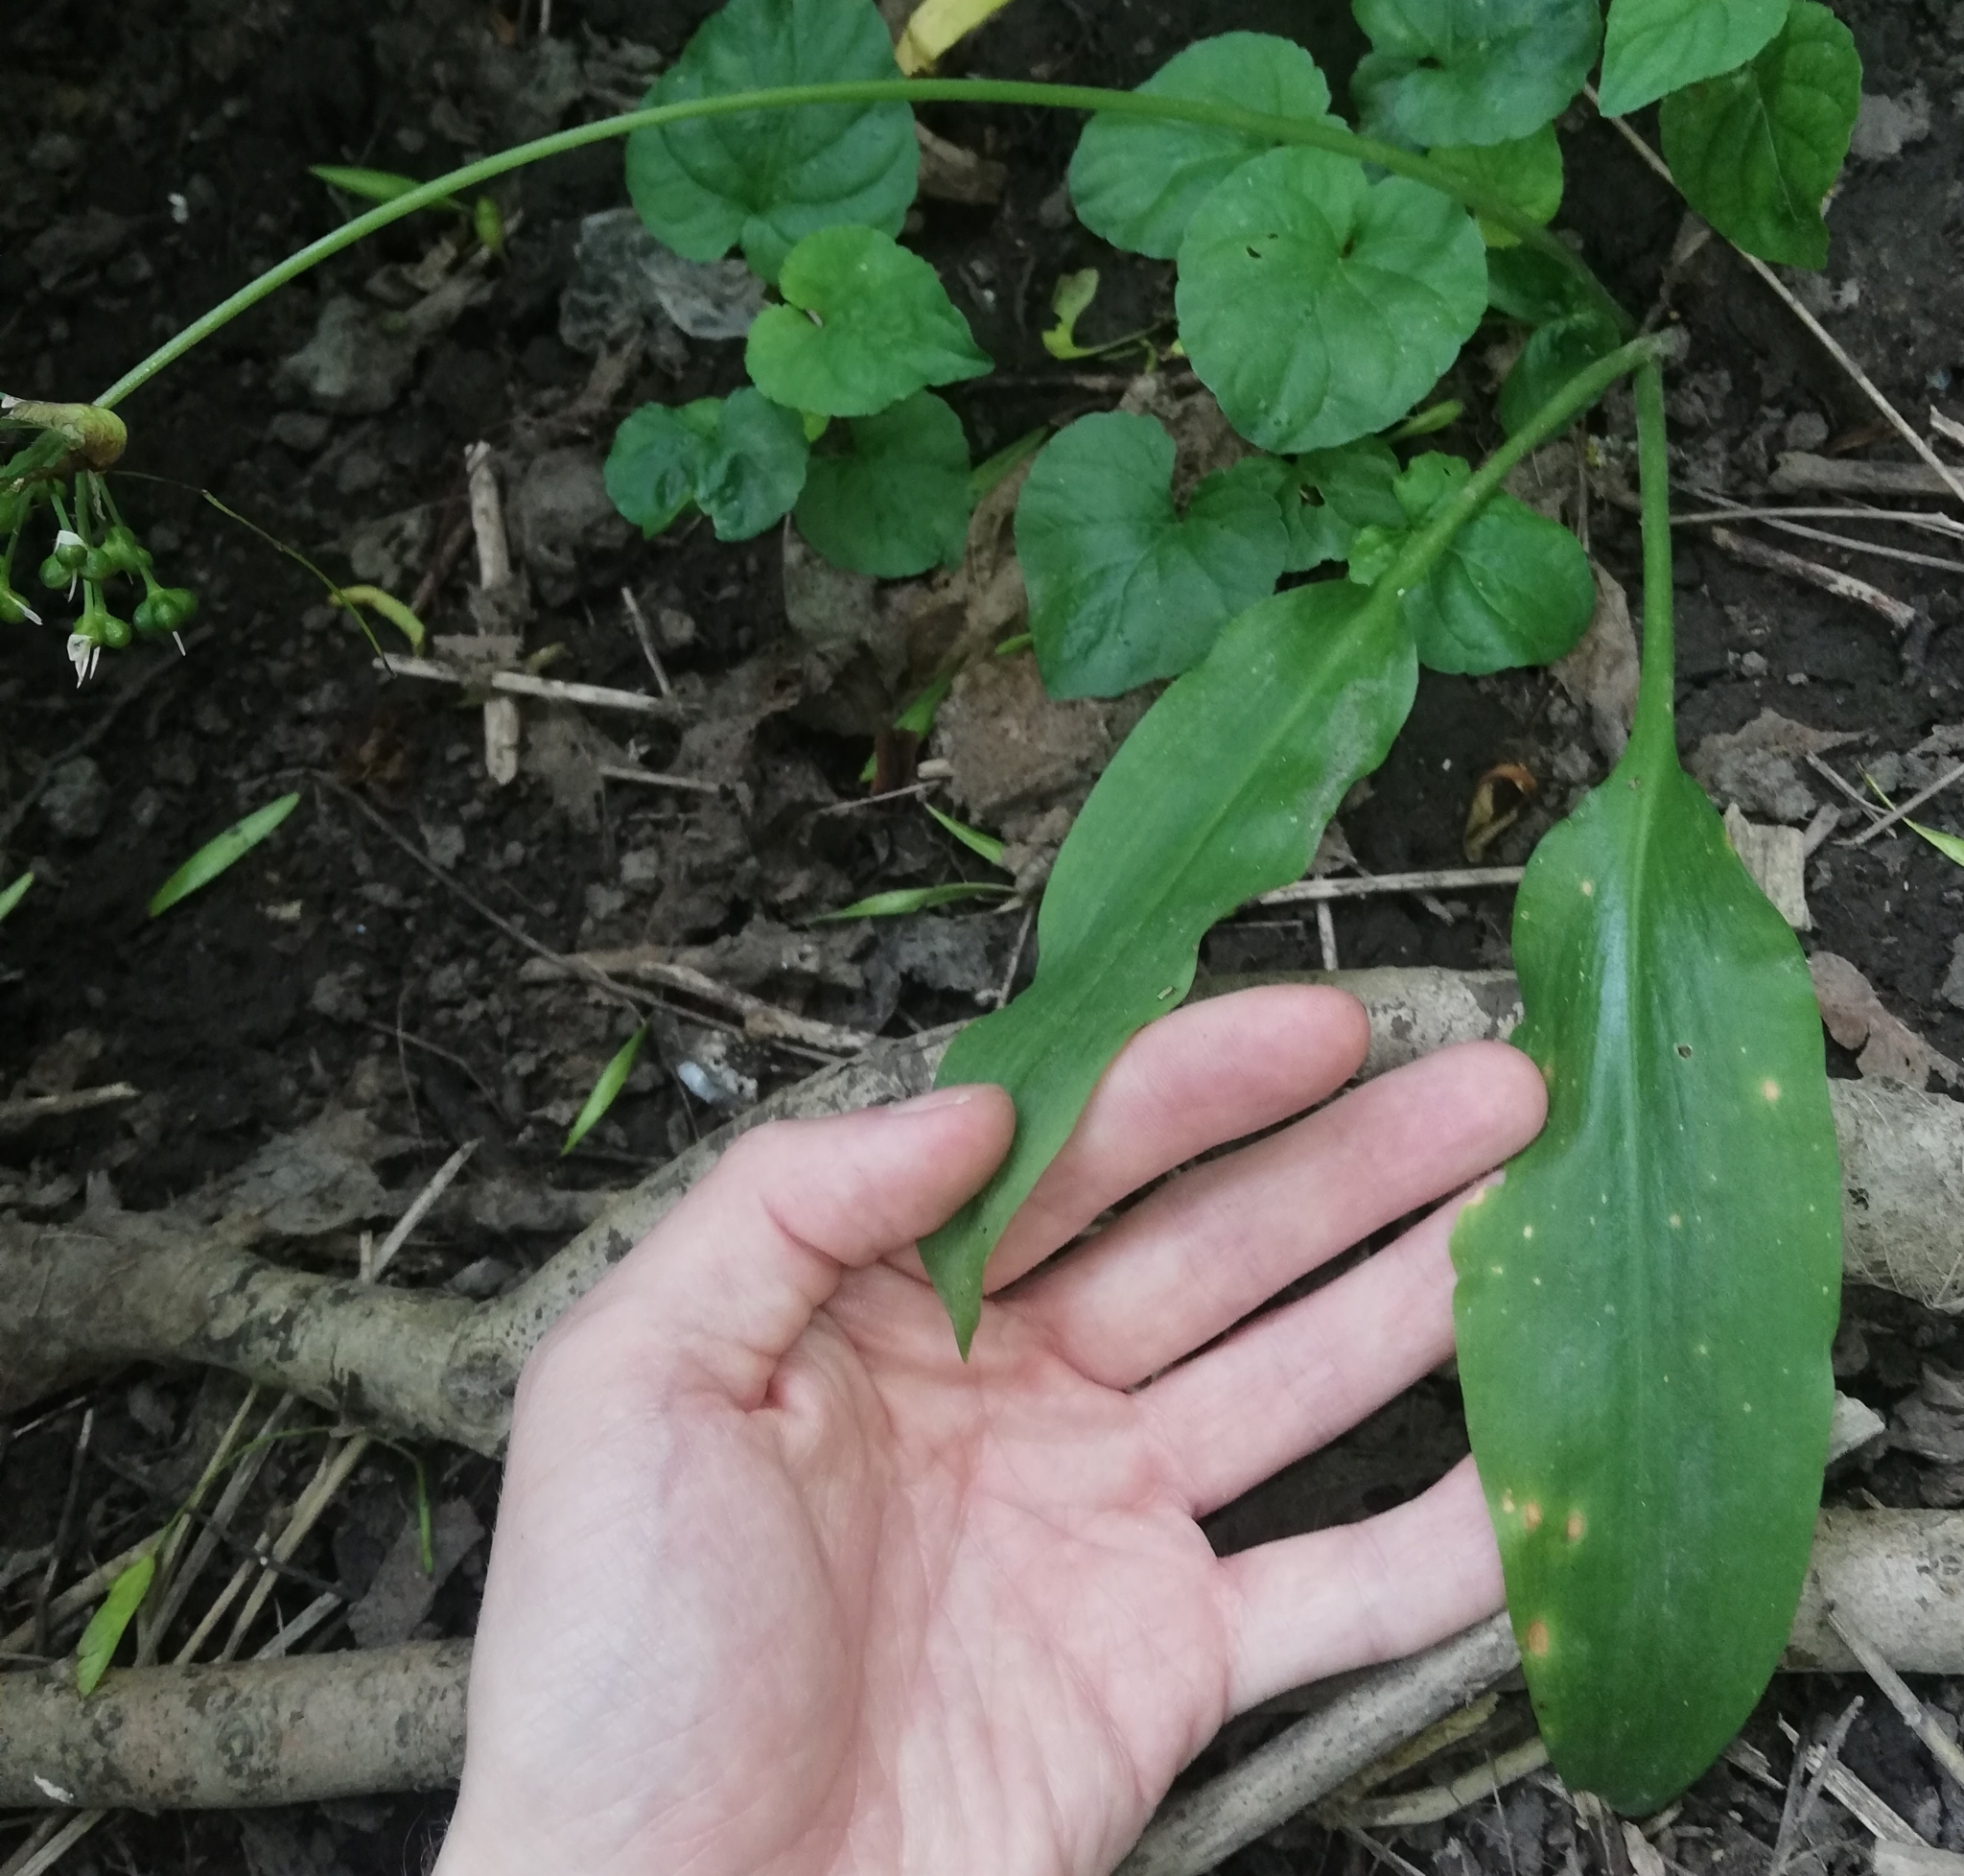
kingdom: Plantae
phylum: Tracheophyta
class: Liliopsida
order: Asparagales
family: Amaryllidaceae
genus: Allium
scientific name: Allium ursinum
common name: Ramsons
